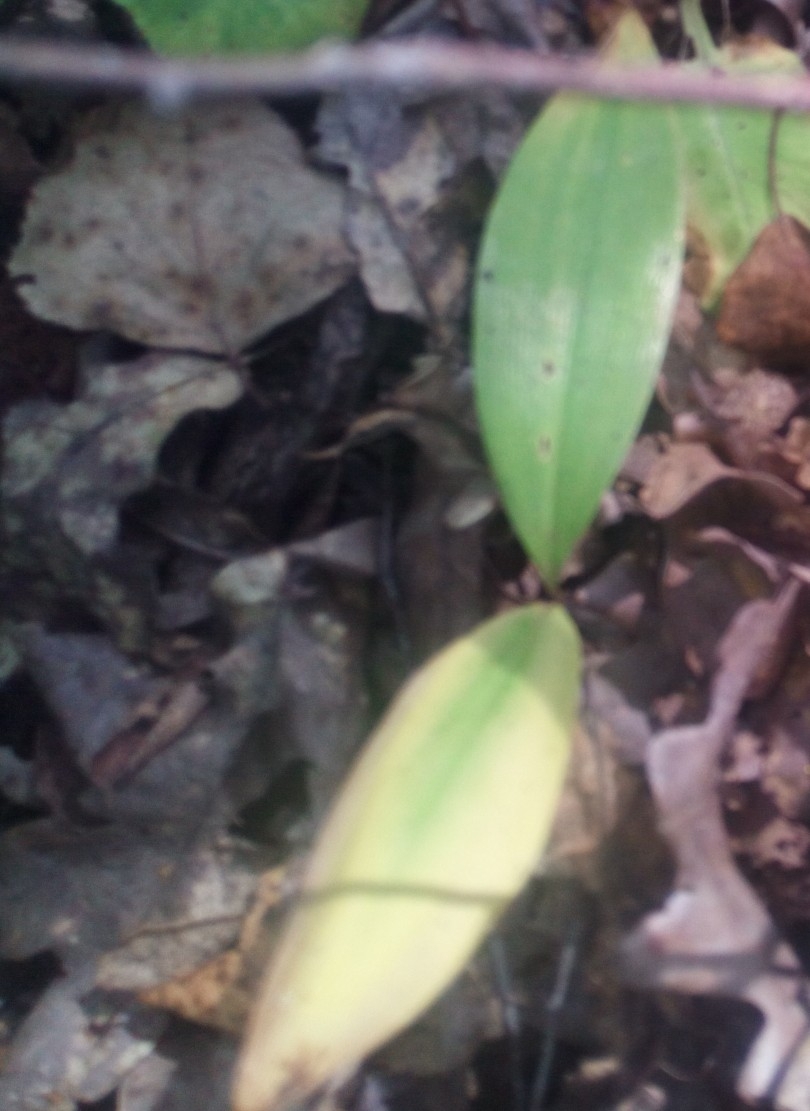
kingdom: Plantae
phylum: Tracheophyta
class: Liliopsida
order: Asparagales
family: Asparagaceae
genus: Convallaria
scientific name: Convallaria majalis
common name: Lily-of-the-valley
